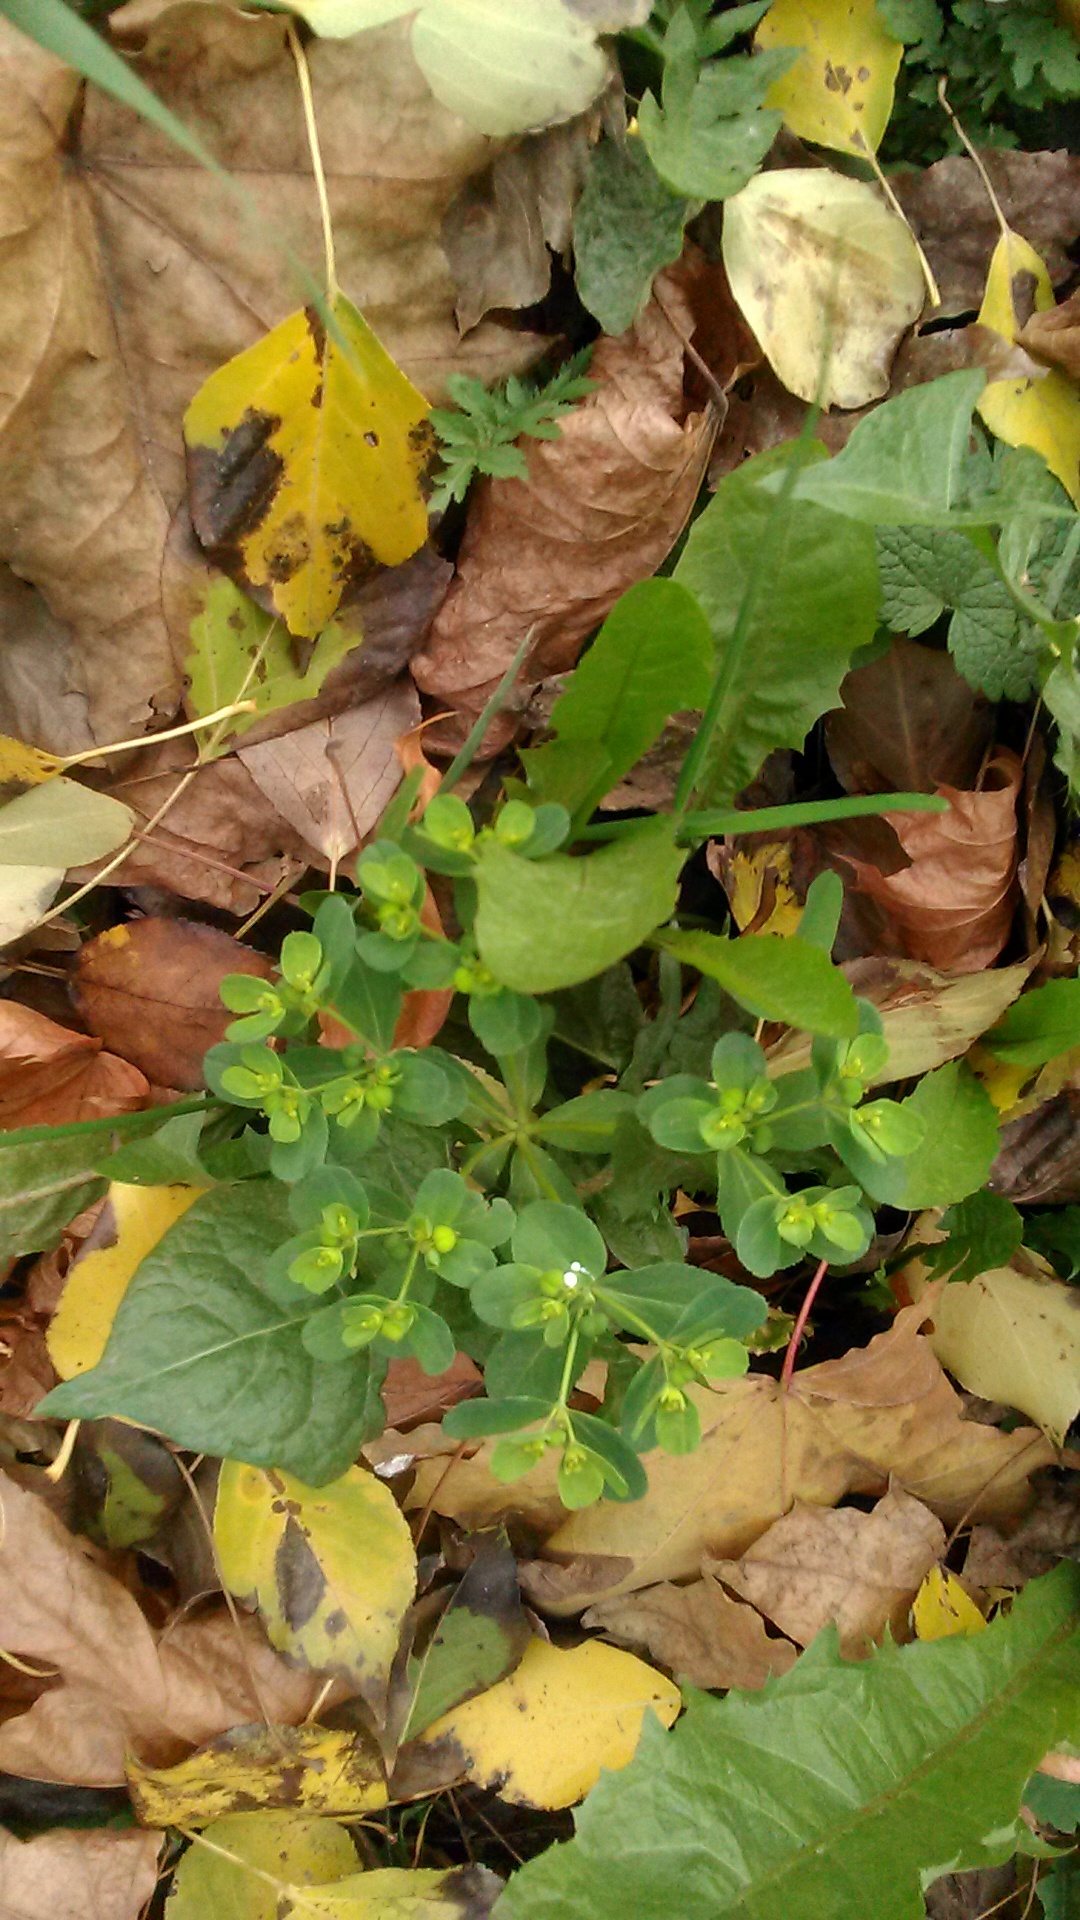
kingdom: Plantae
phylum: Tracheophyta
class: Magnoliopsida
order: Malpighiales
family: Euphorbiaceae
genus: Euphorbia
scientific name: Euphorbia helioscopia
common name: Sun spurge
